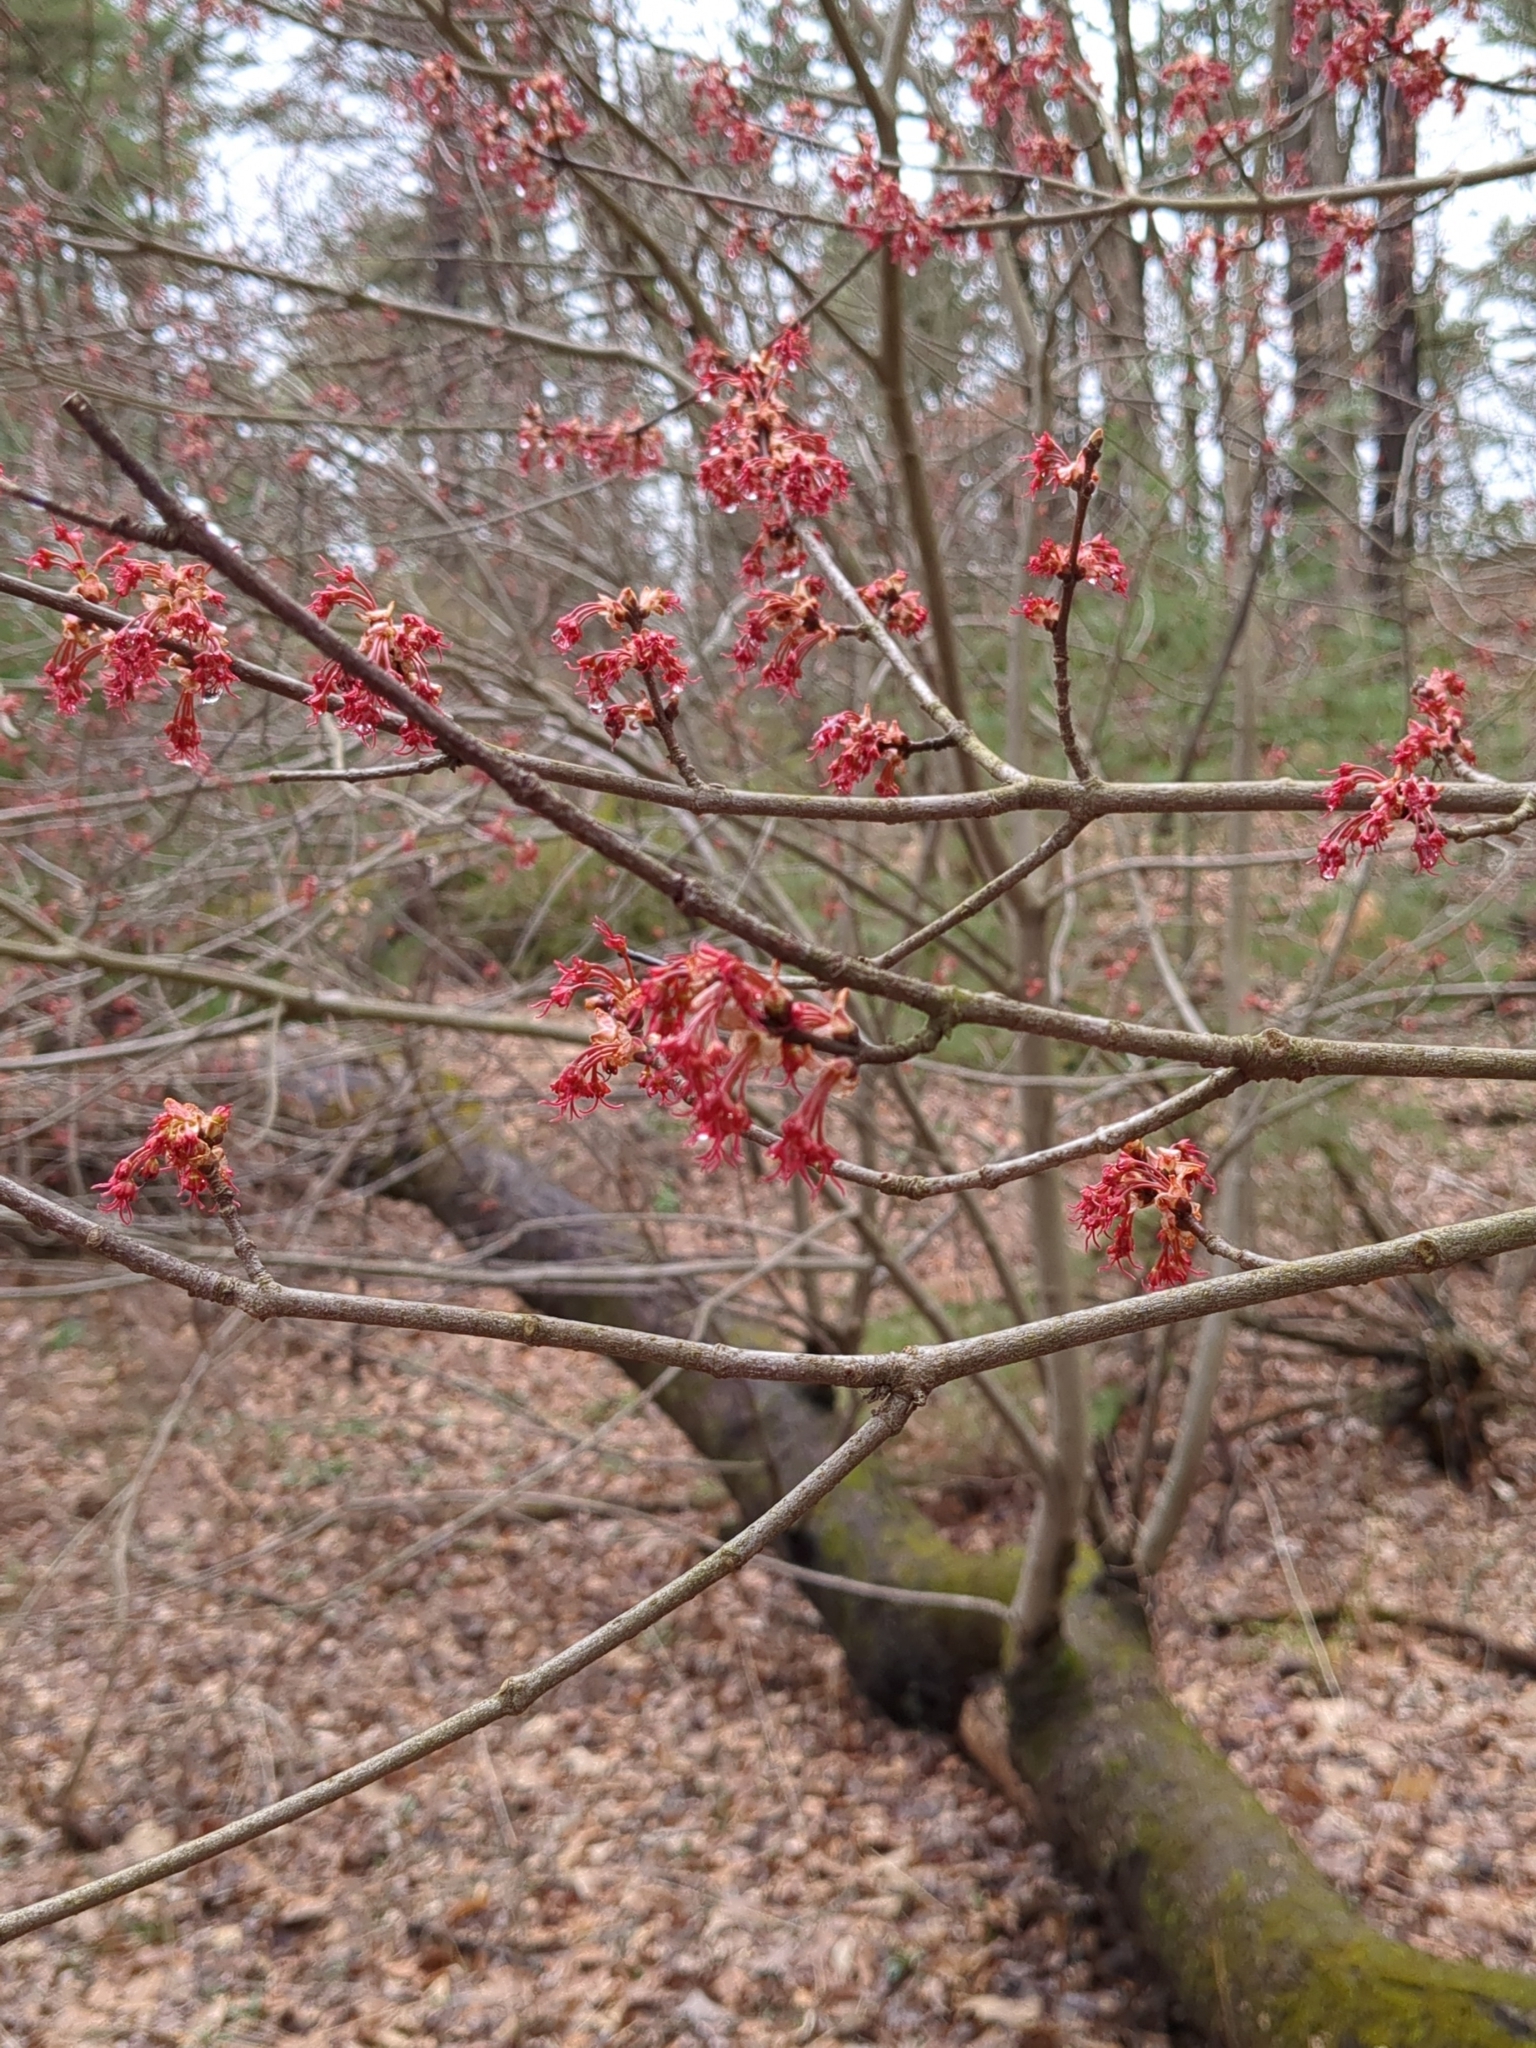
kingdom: Plantae
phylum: Tracheophyta
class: Magnoliopsida
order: Sapindales
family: Sapindaceae
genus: Acer
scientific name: Acer rubrum
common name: Red maple
